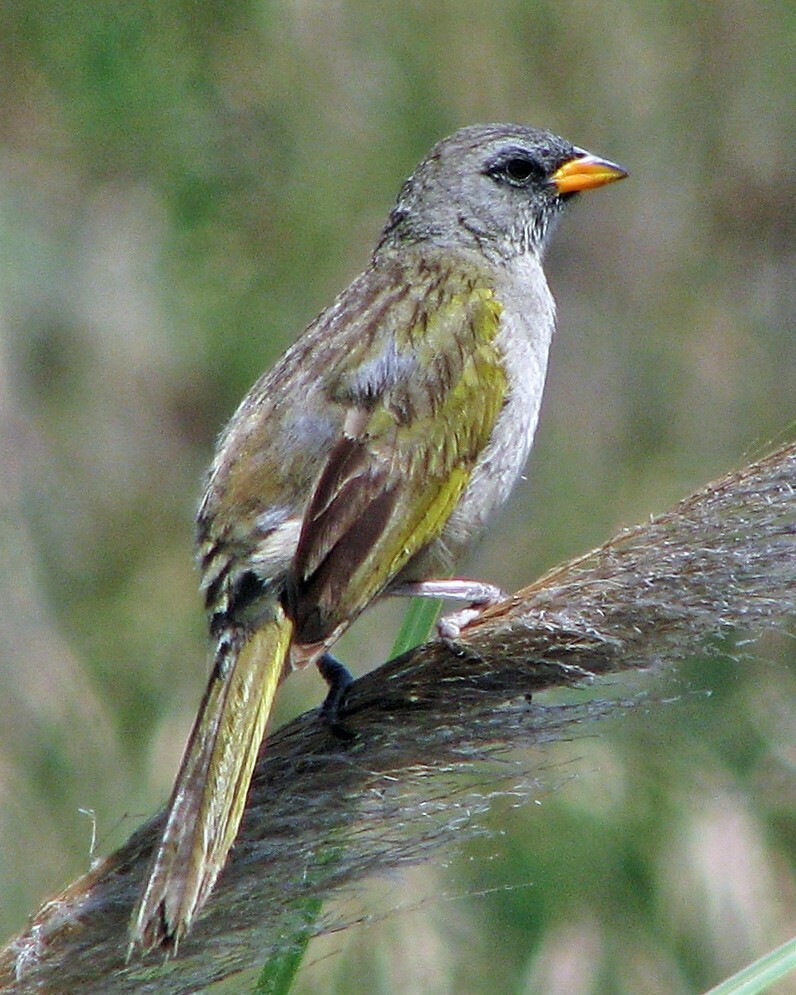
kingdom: Animalia
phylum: Chordata
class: Aves
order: Passeriformes
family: Thraupidae
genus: Embernagra
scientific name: Embernagra platensis
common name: Pampa finch
